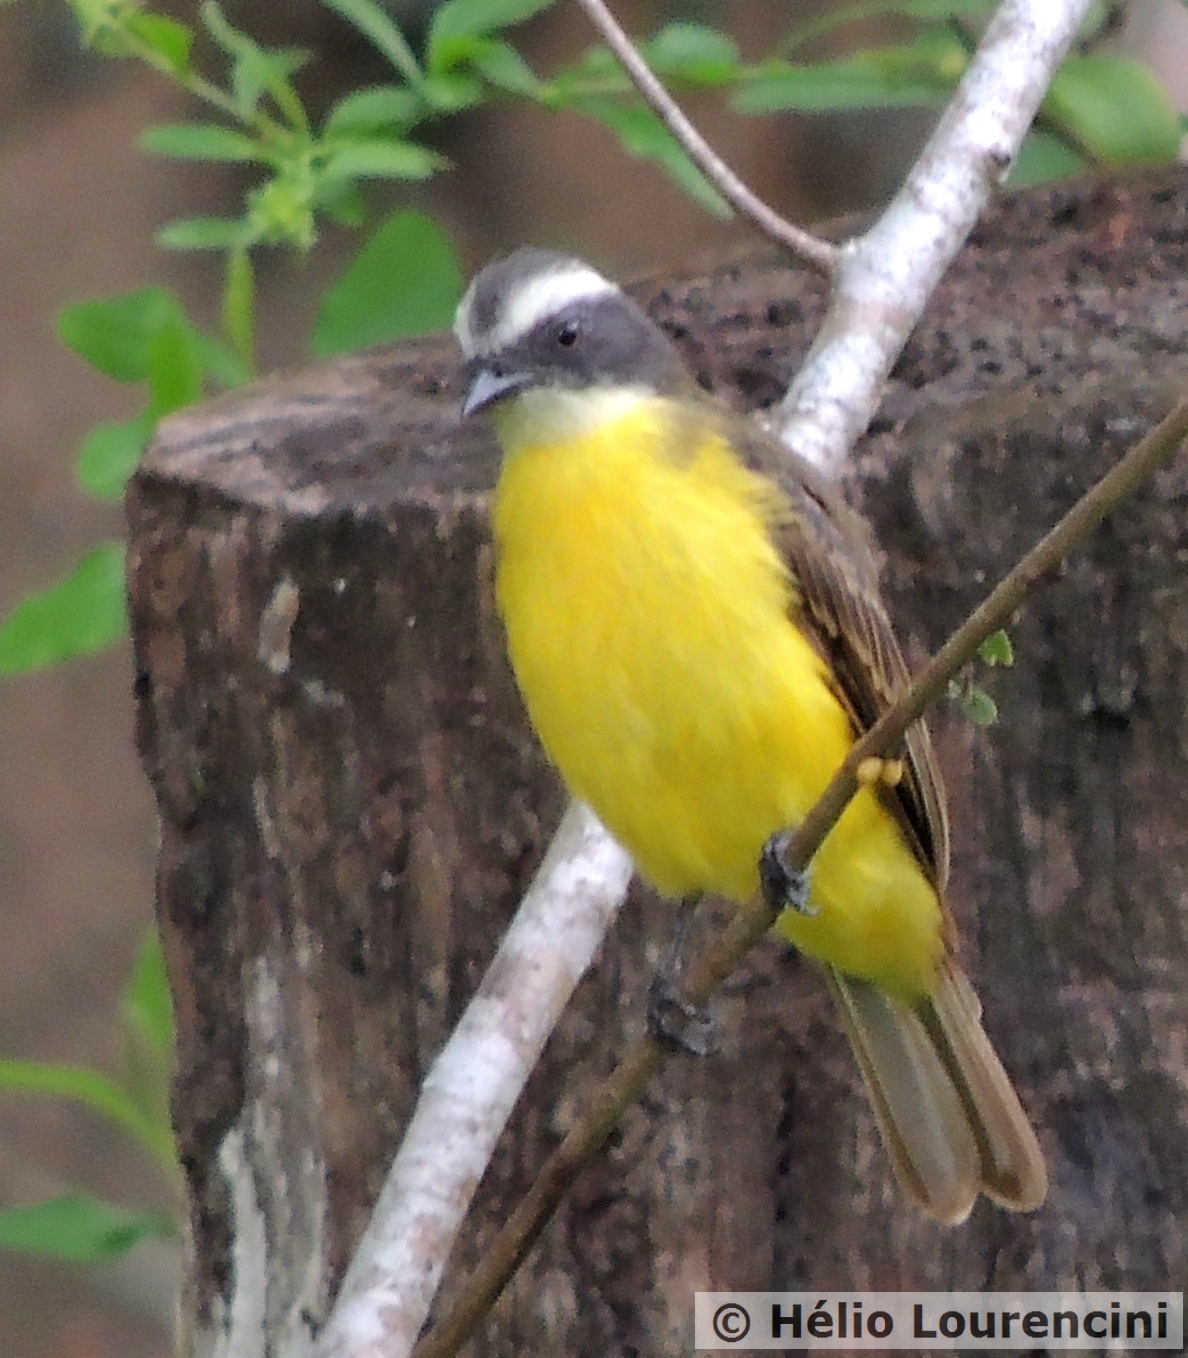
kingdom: Animalia
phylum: Chordata
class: Aves
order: Passeriformes
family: Tyrannidae
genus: Myiozetetes
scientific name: Myiozetetes similis
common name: Social flycatcher
